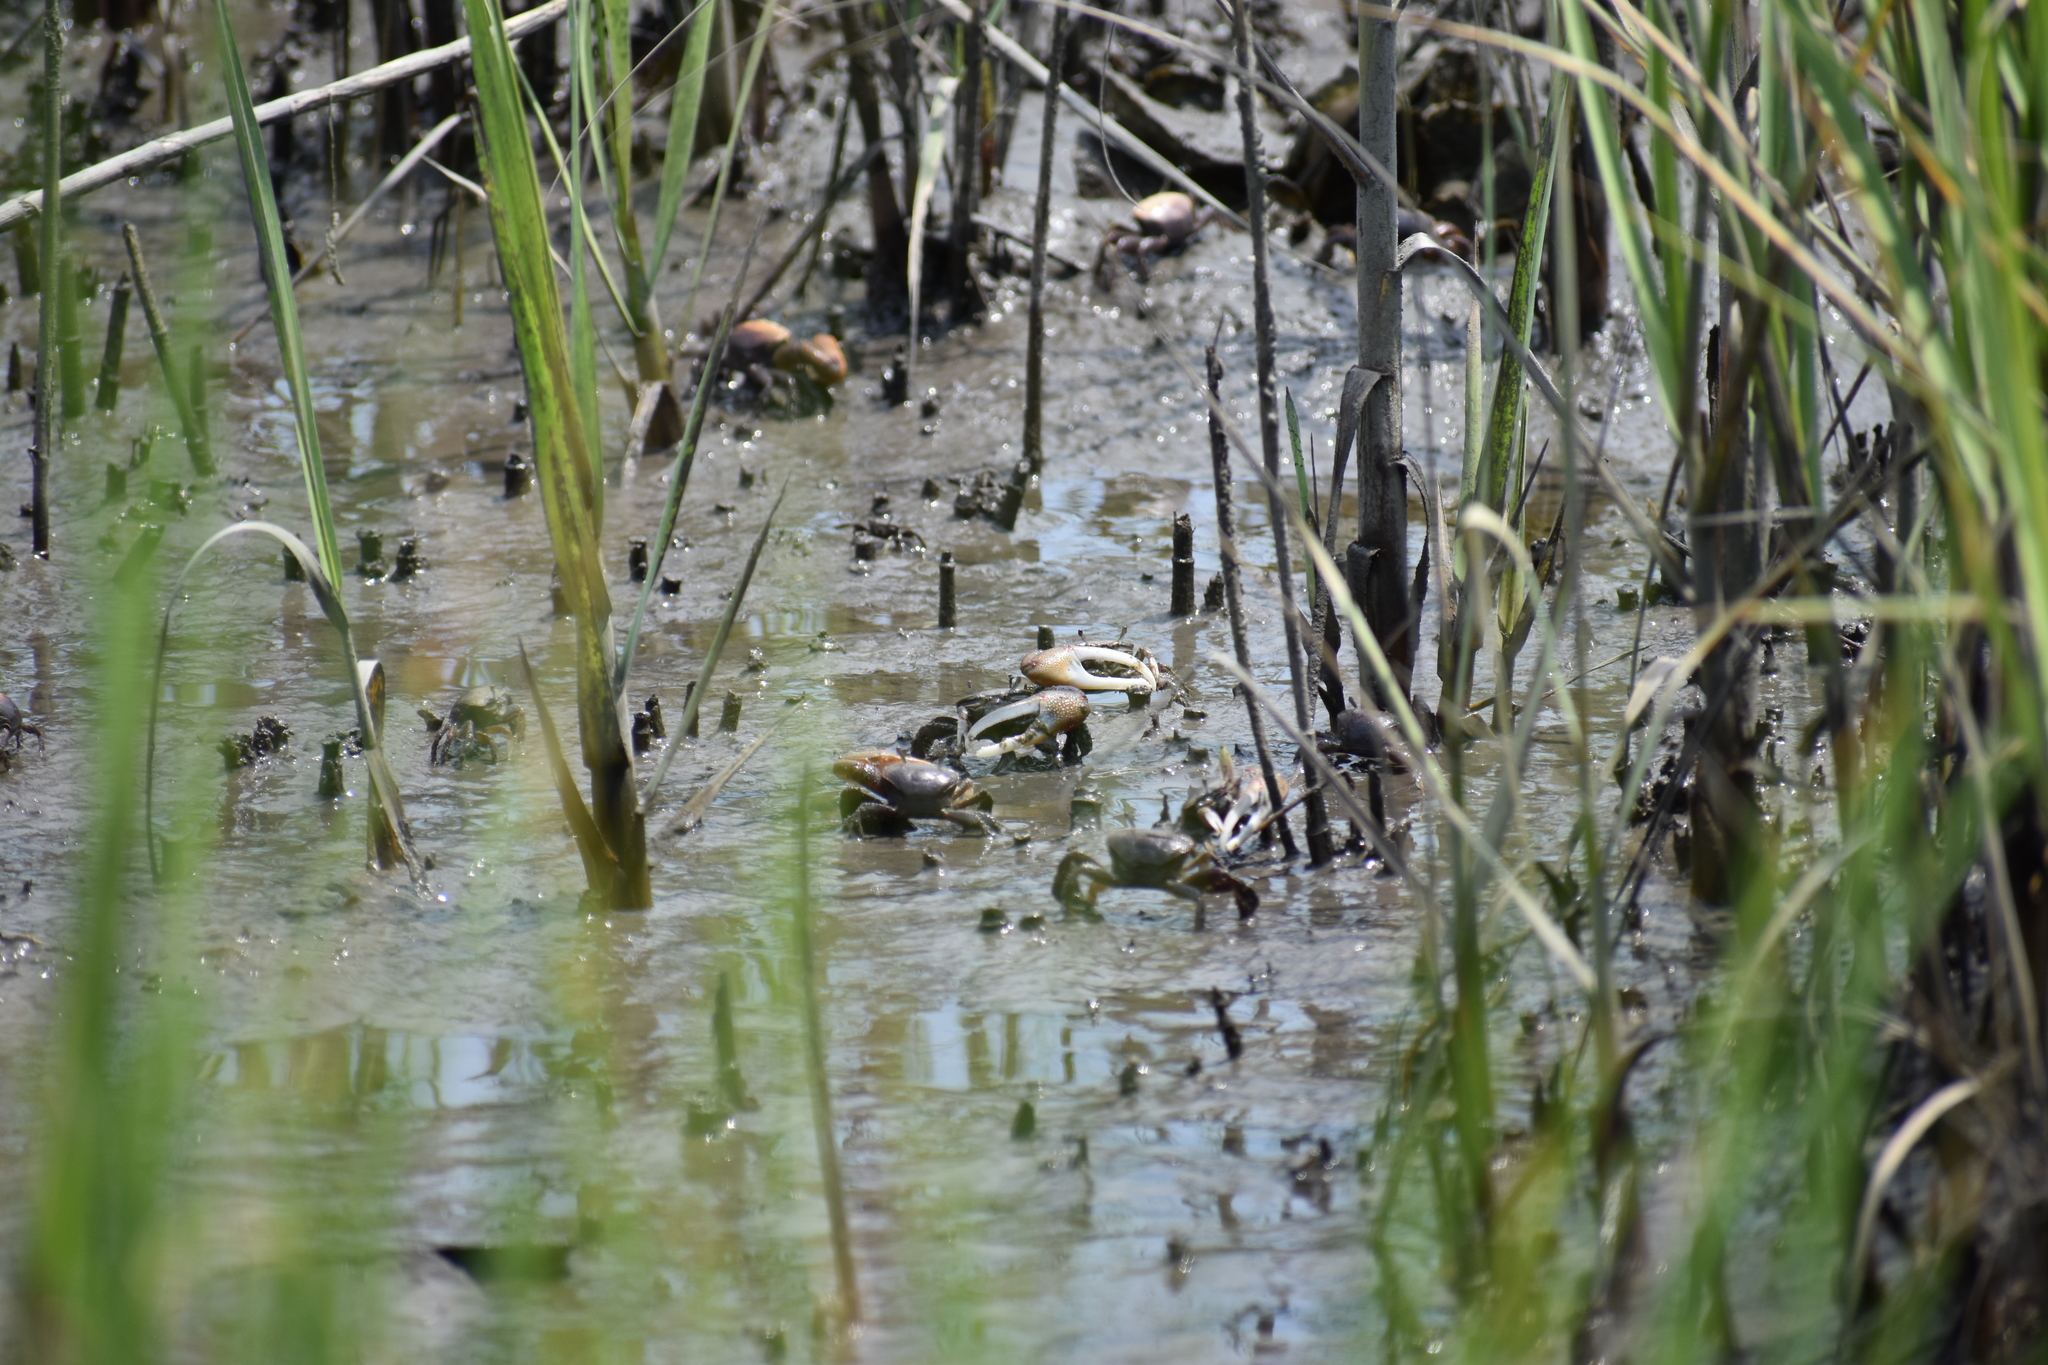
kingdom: Animalia
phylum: Arthropoda
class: Malacostraca
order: Decapoda
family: Ocypodidae
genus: Minuca
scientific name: Minuca minax
